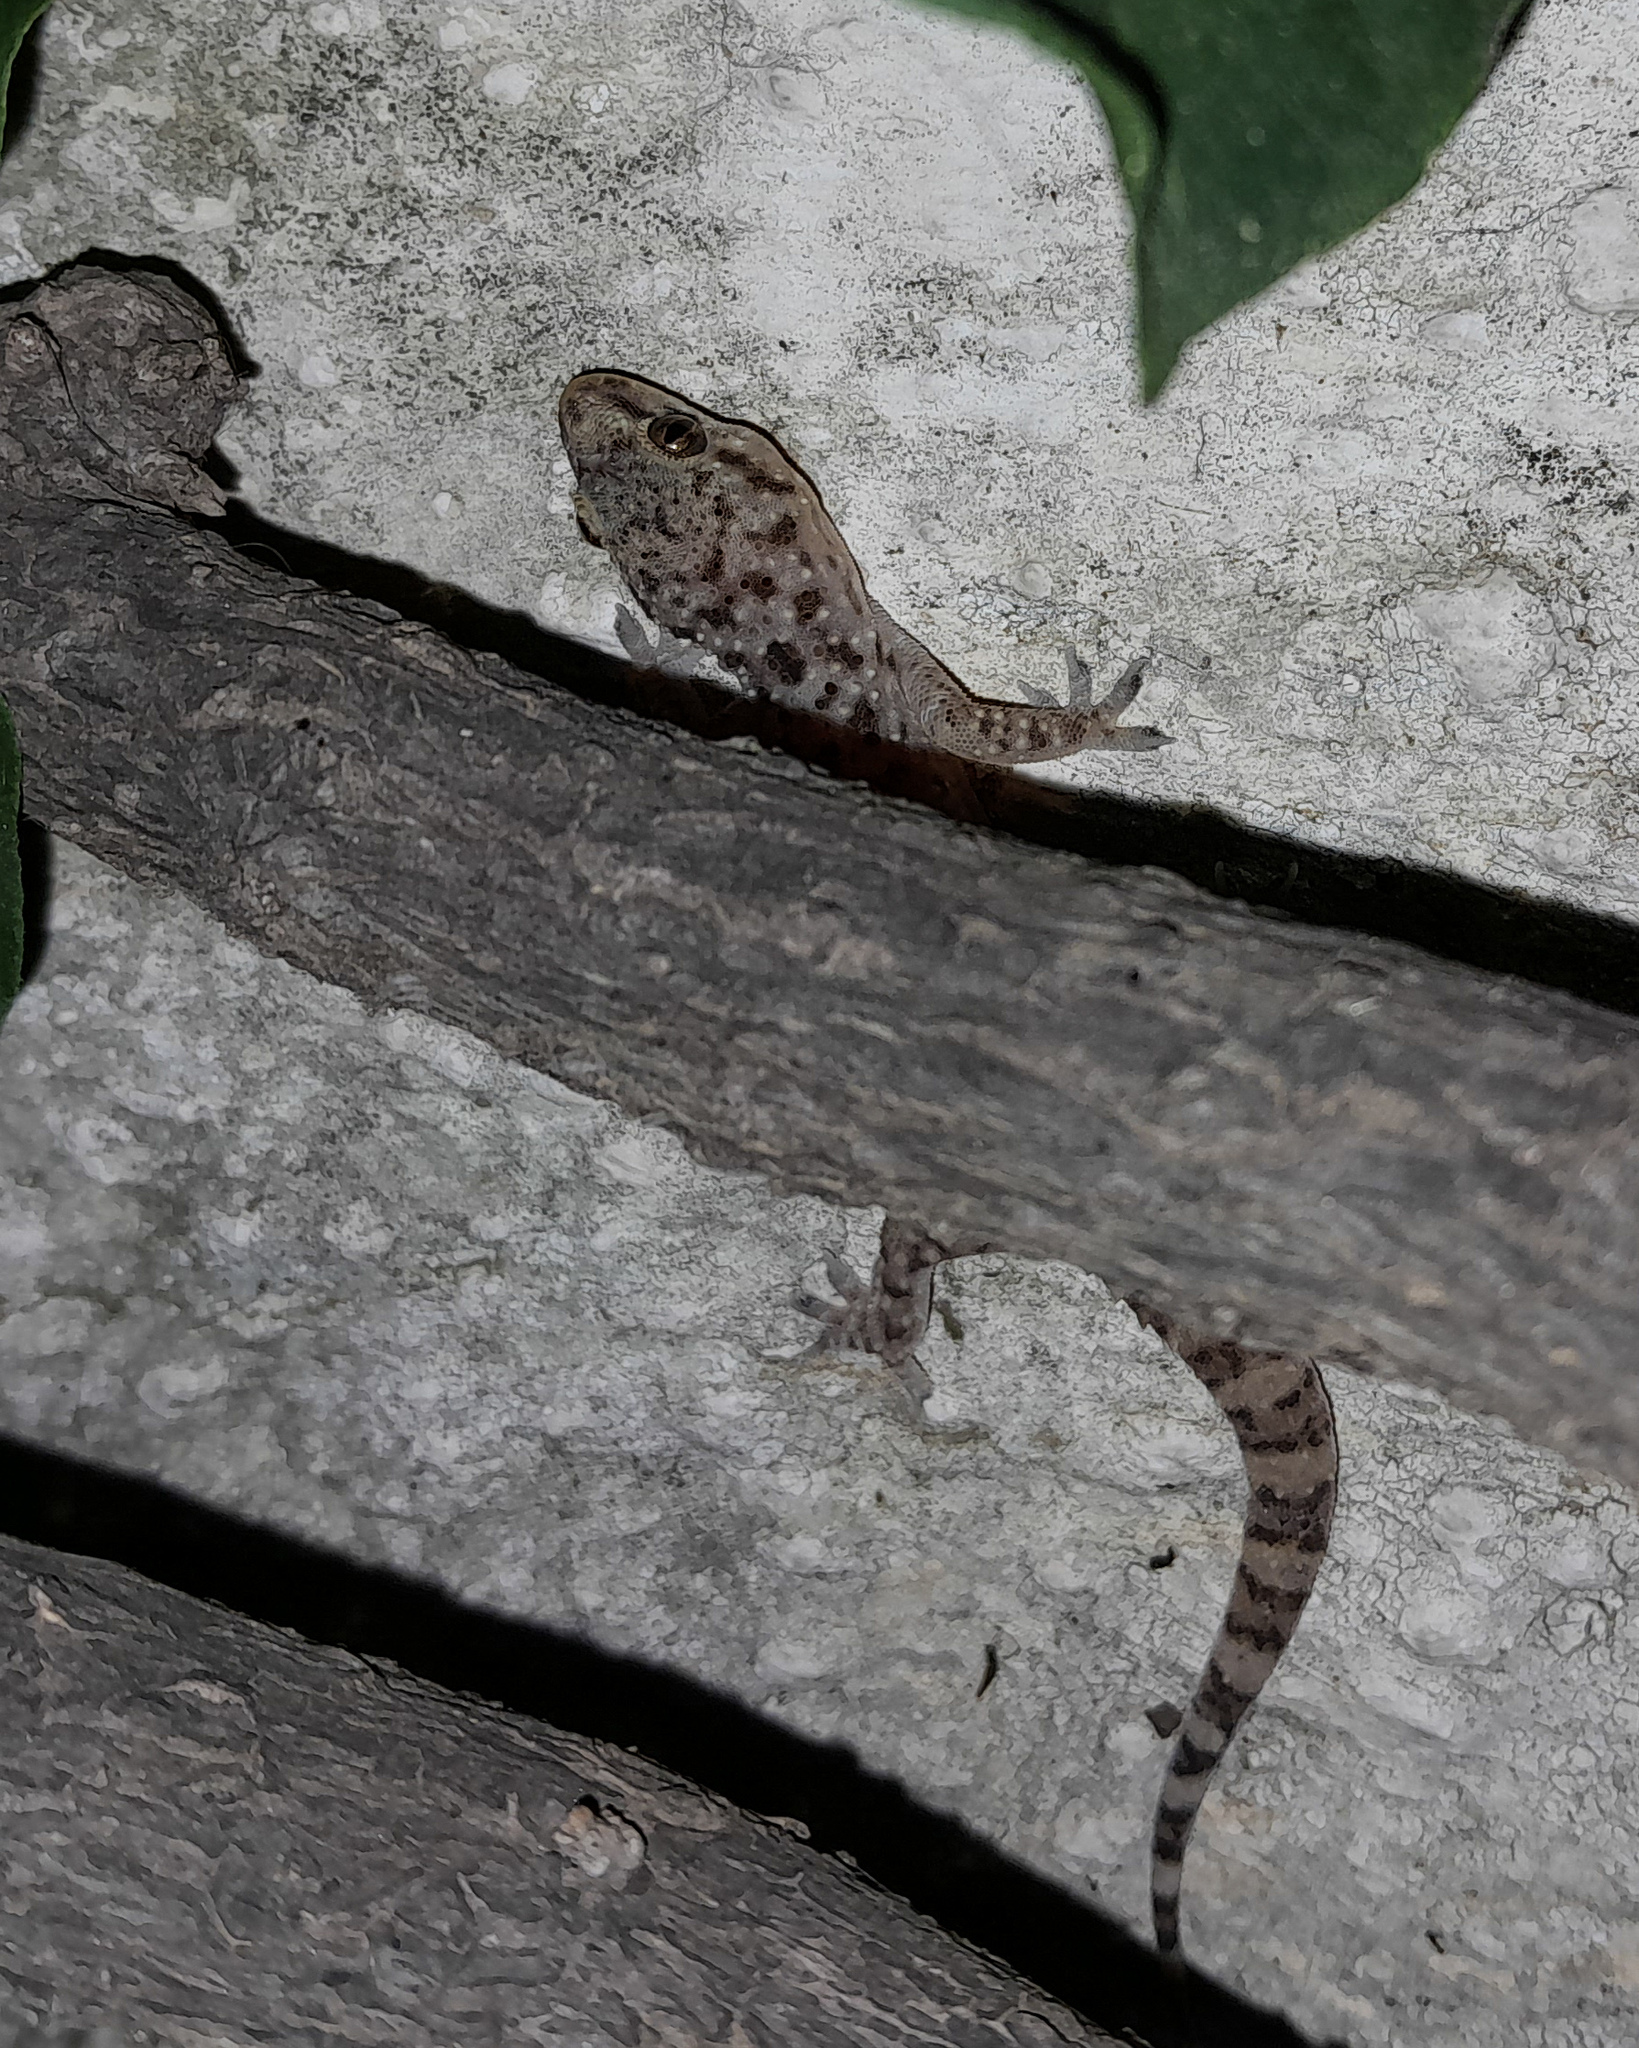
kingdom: Animalia
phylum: Chordata
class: Squamata
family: Gekkonidae
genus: Hemidactylus
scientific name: Hemidactylus turcicus
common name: Turkish gecko
